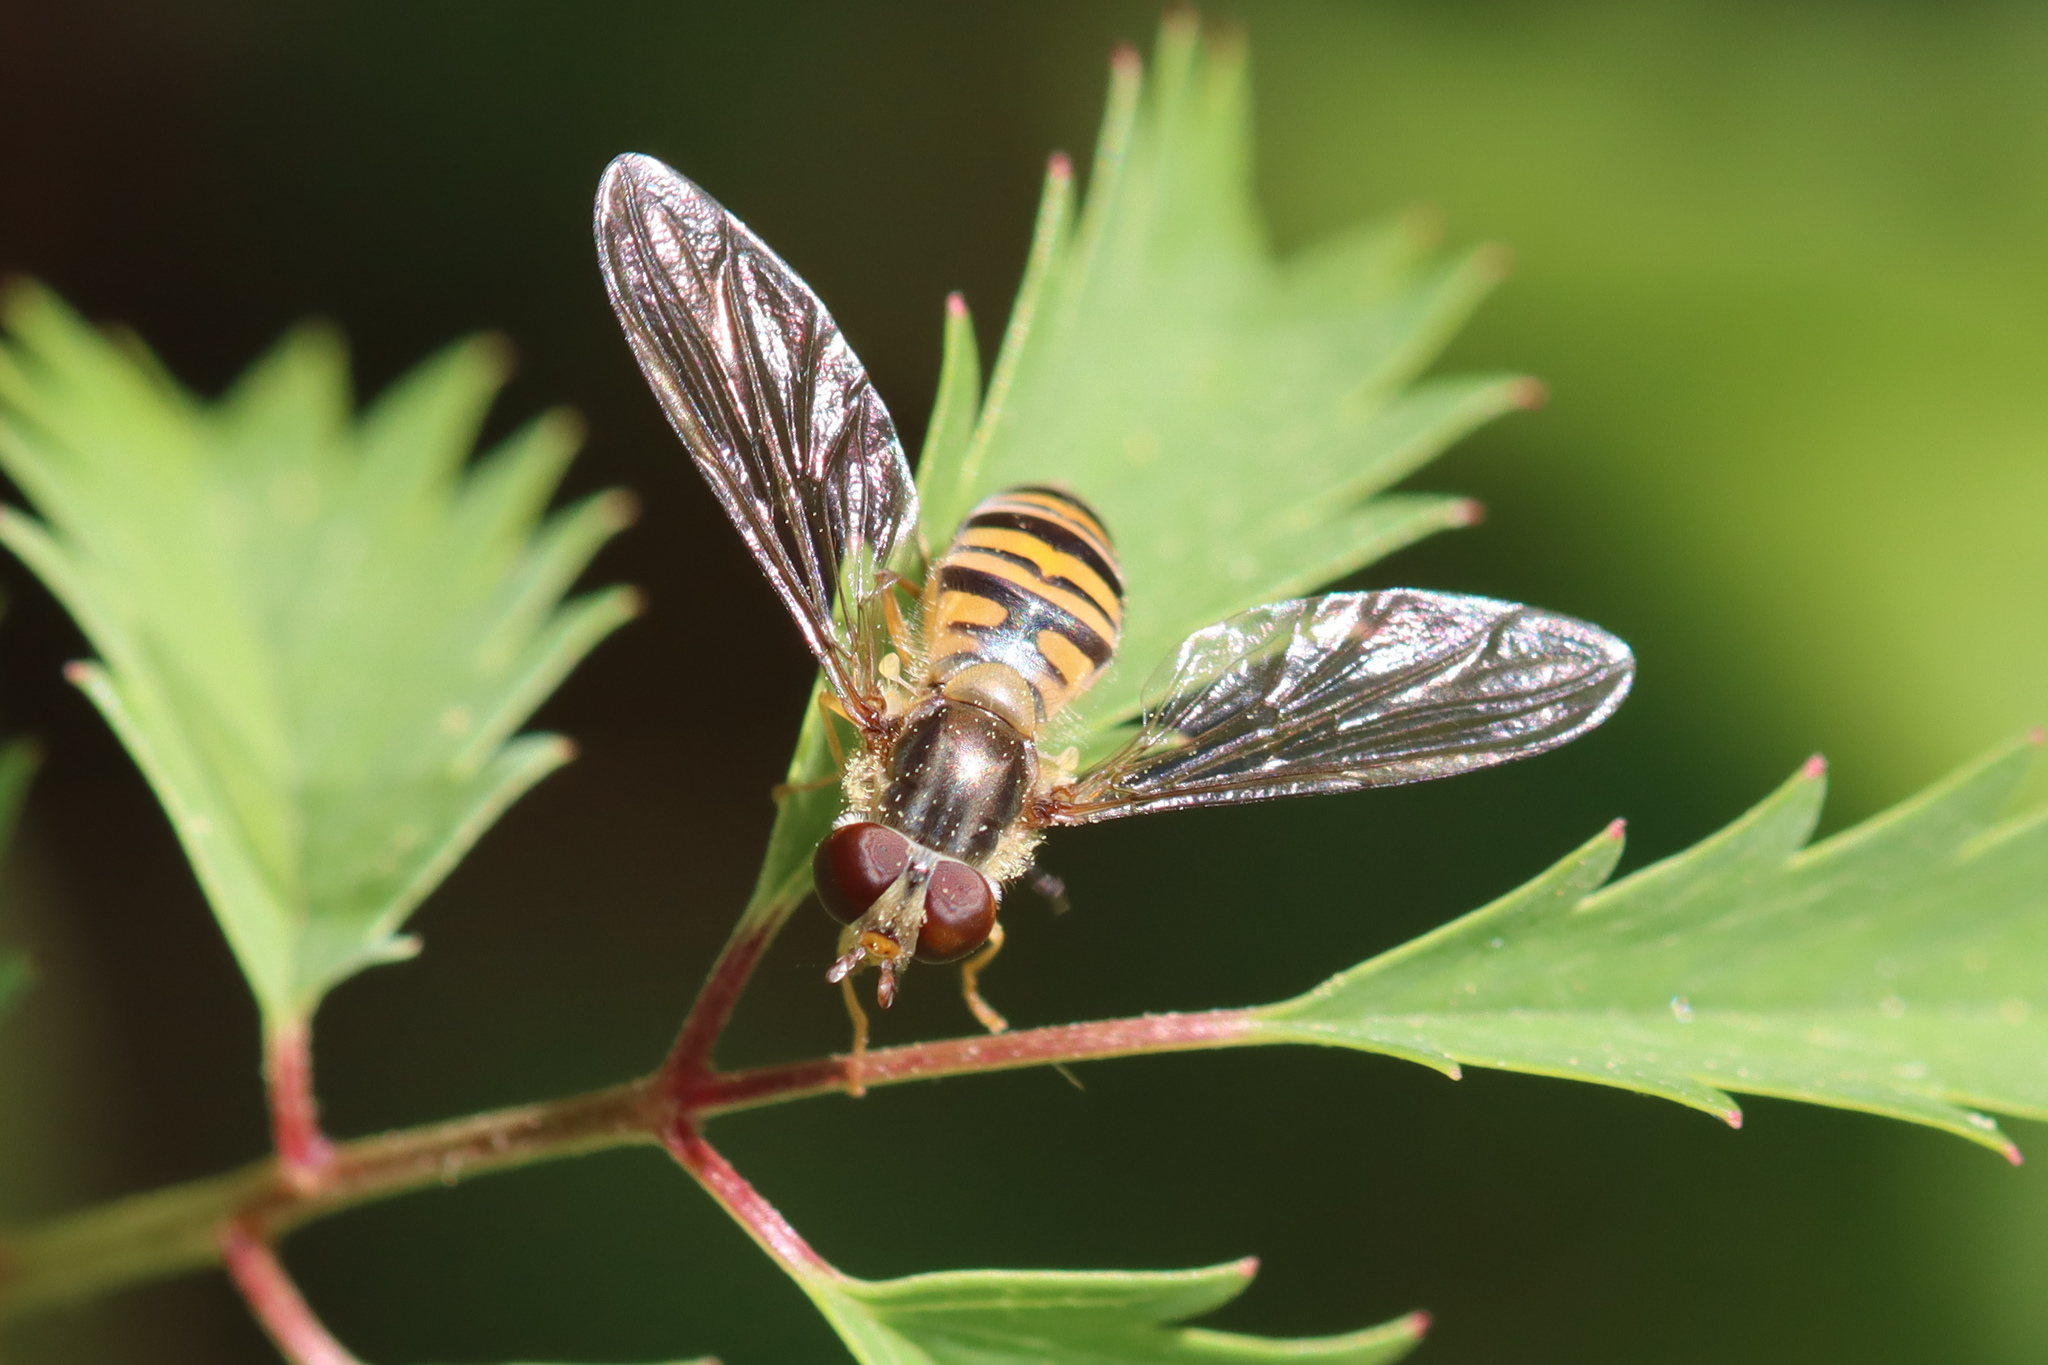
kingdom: Animalia
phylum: Arthropoda
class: Insecta
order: Diptera
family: Syrphidae
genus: Episyrphus
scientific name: Episyrphus balteatus
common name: Marmalade hoverfly
